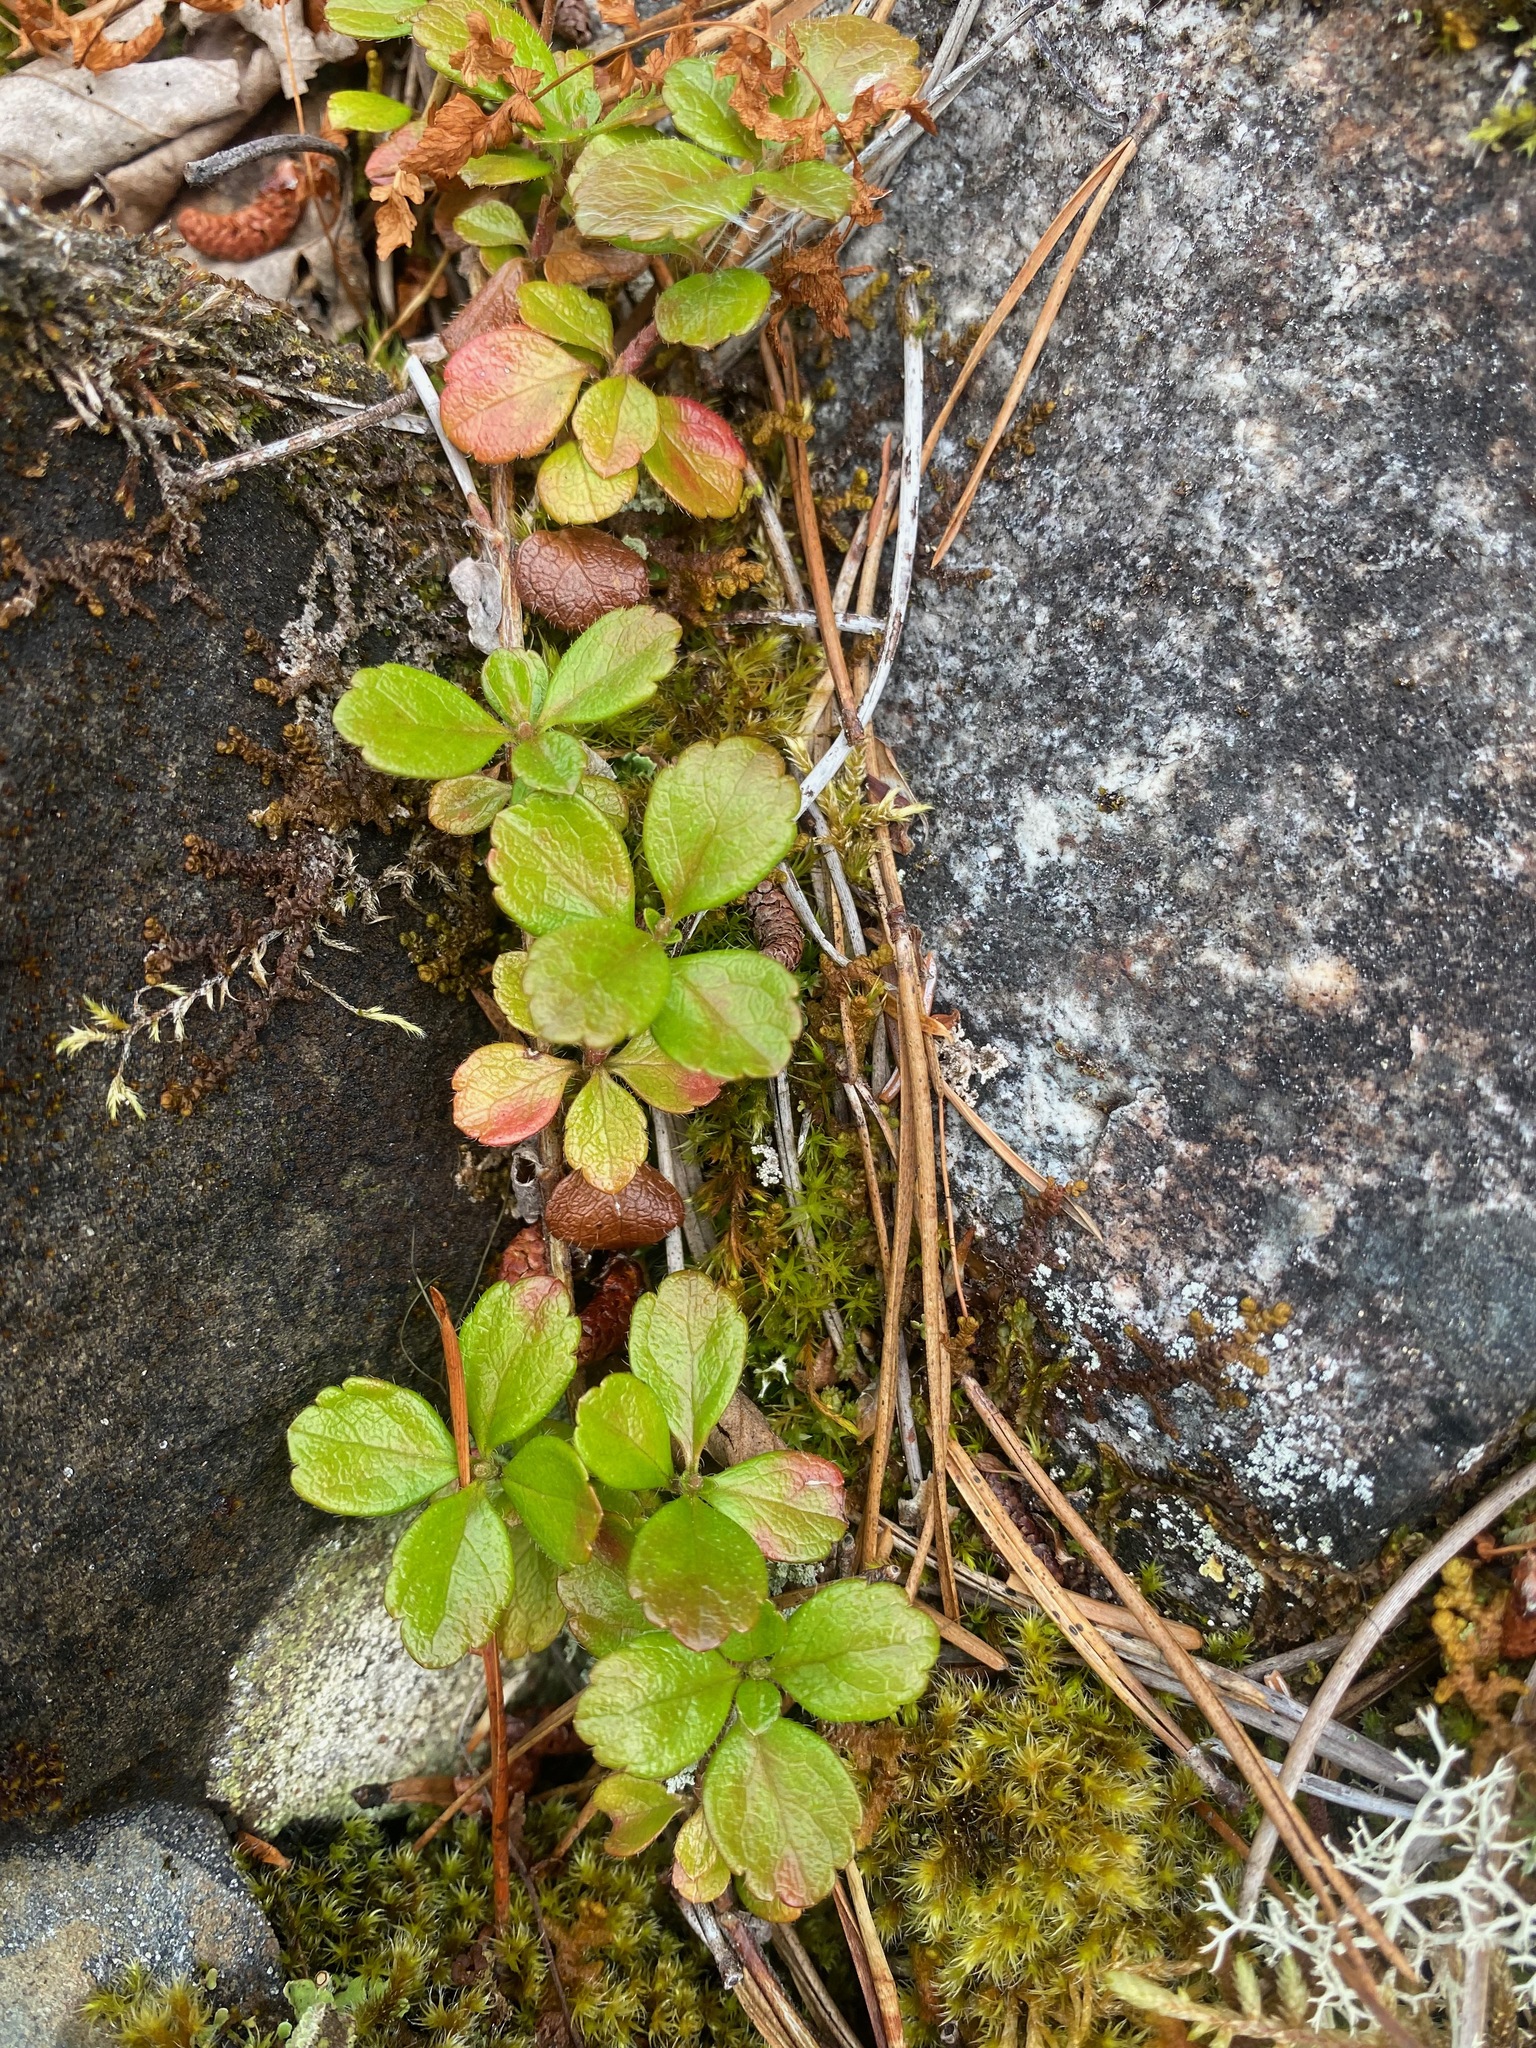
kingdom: Plantae
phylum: Tracheophyta
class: Magnoliopsida
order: Dipsacales
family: Caprifoliaceae
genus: Linnaea
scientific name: Linnaea borealis
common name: Twinflower
